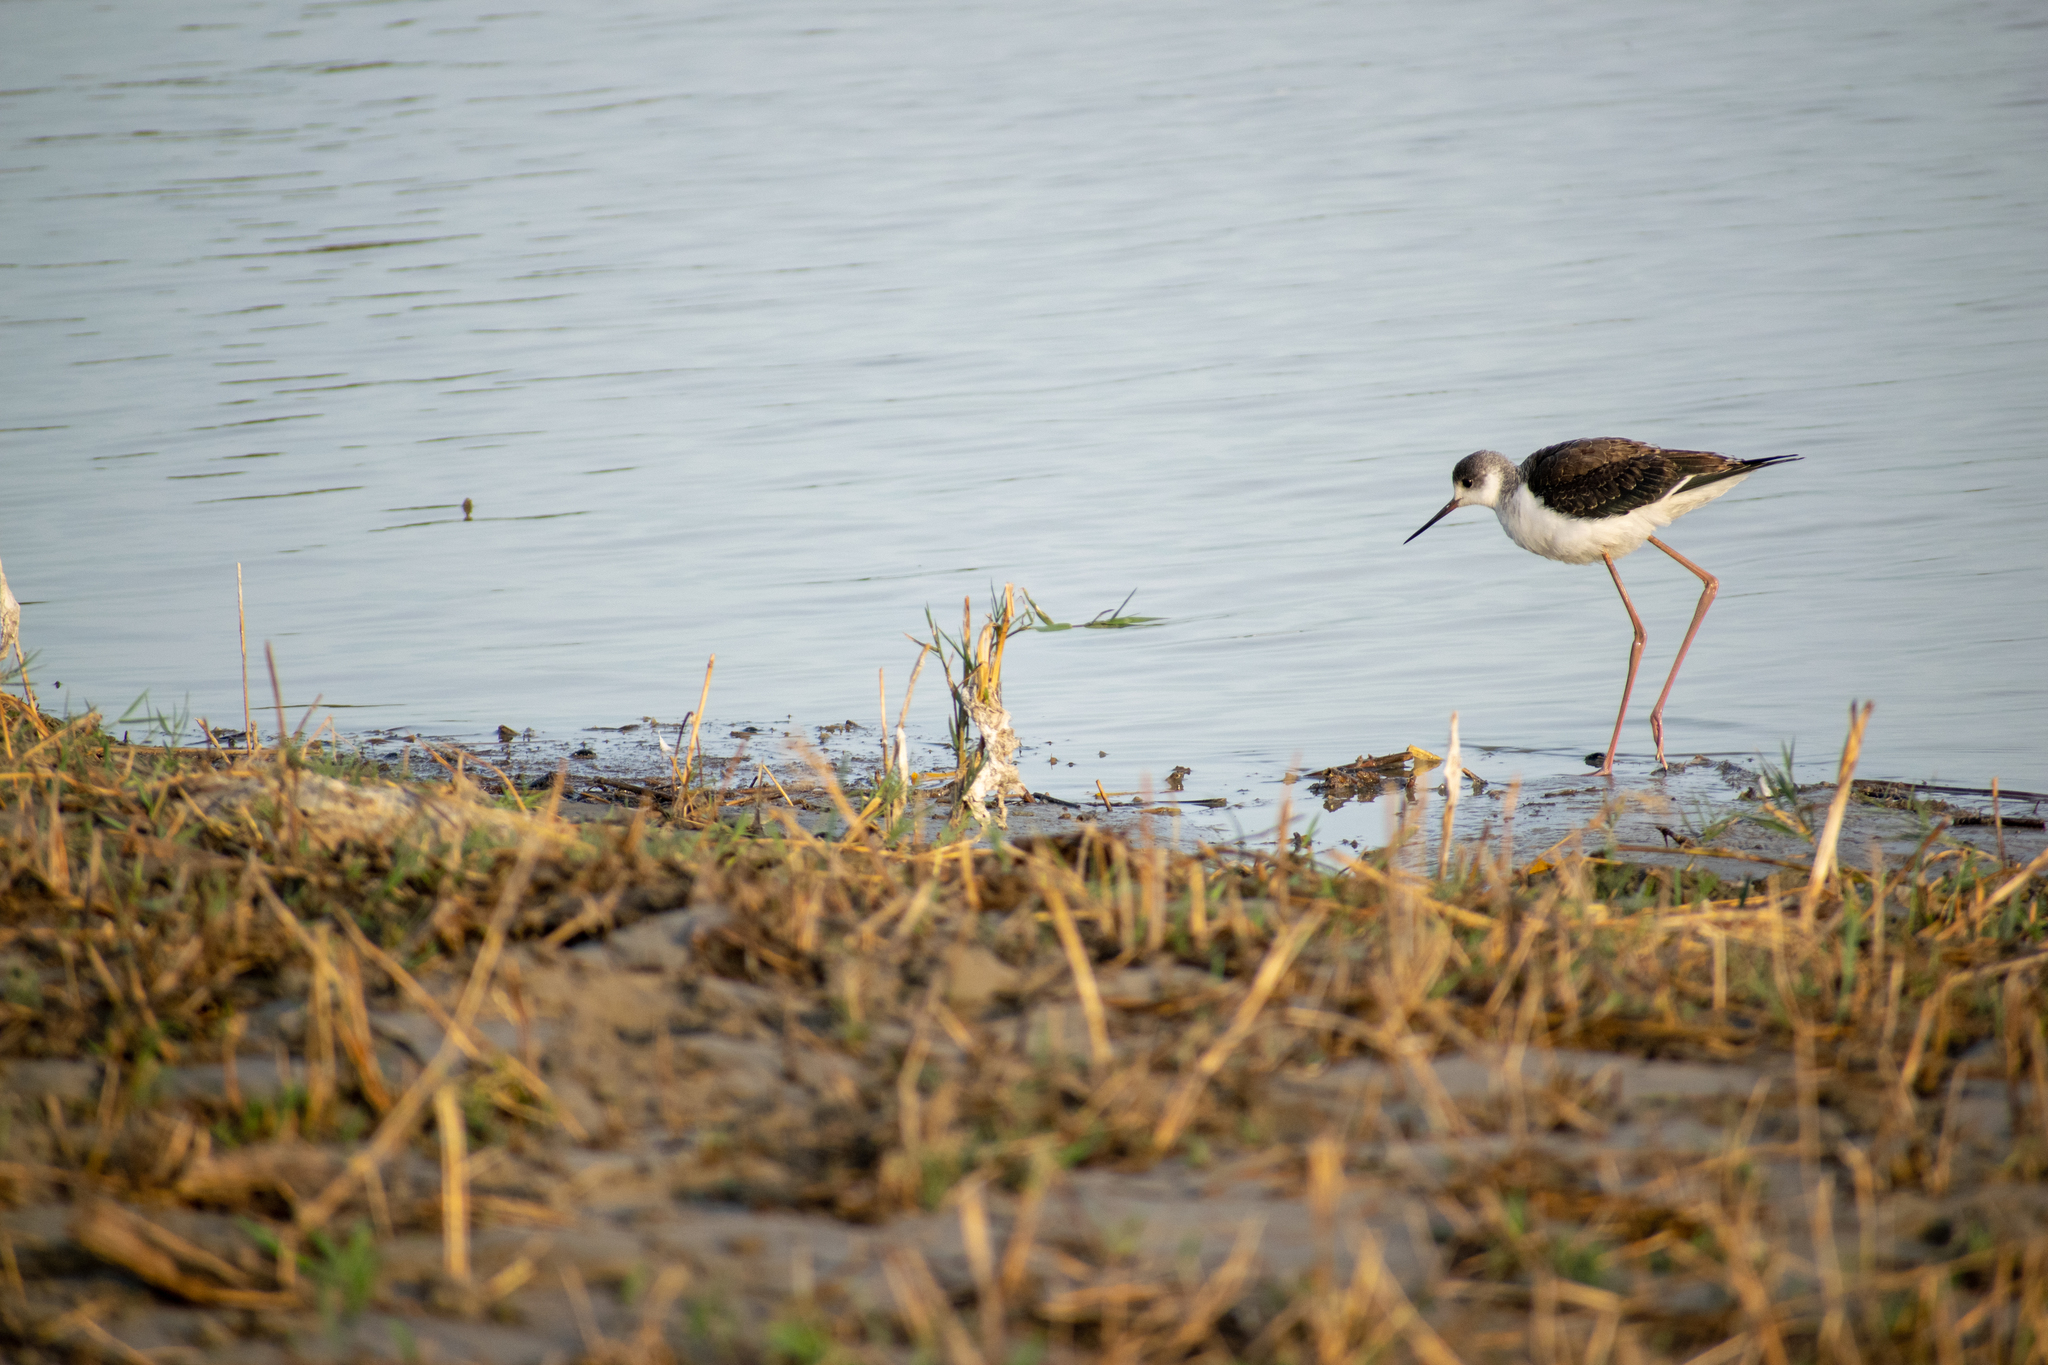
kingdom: Animalia
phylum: Chordata
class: Aves
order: Charadriiformes
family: Recurvirostridae
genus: Himantopus
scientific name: Himantopus himantopus
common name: Black-winged stilt
